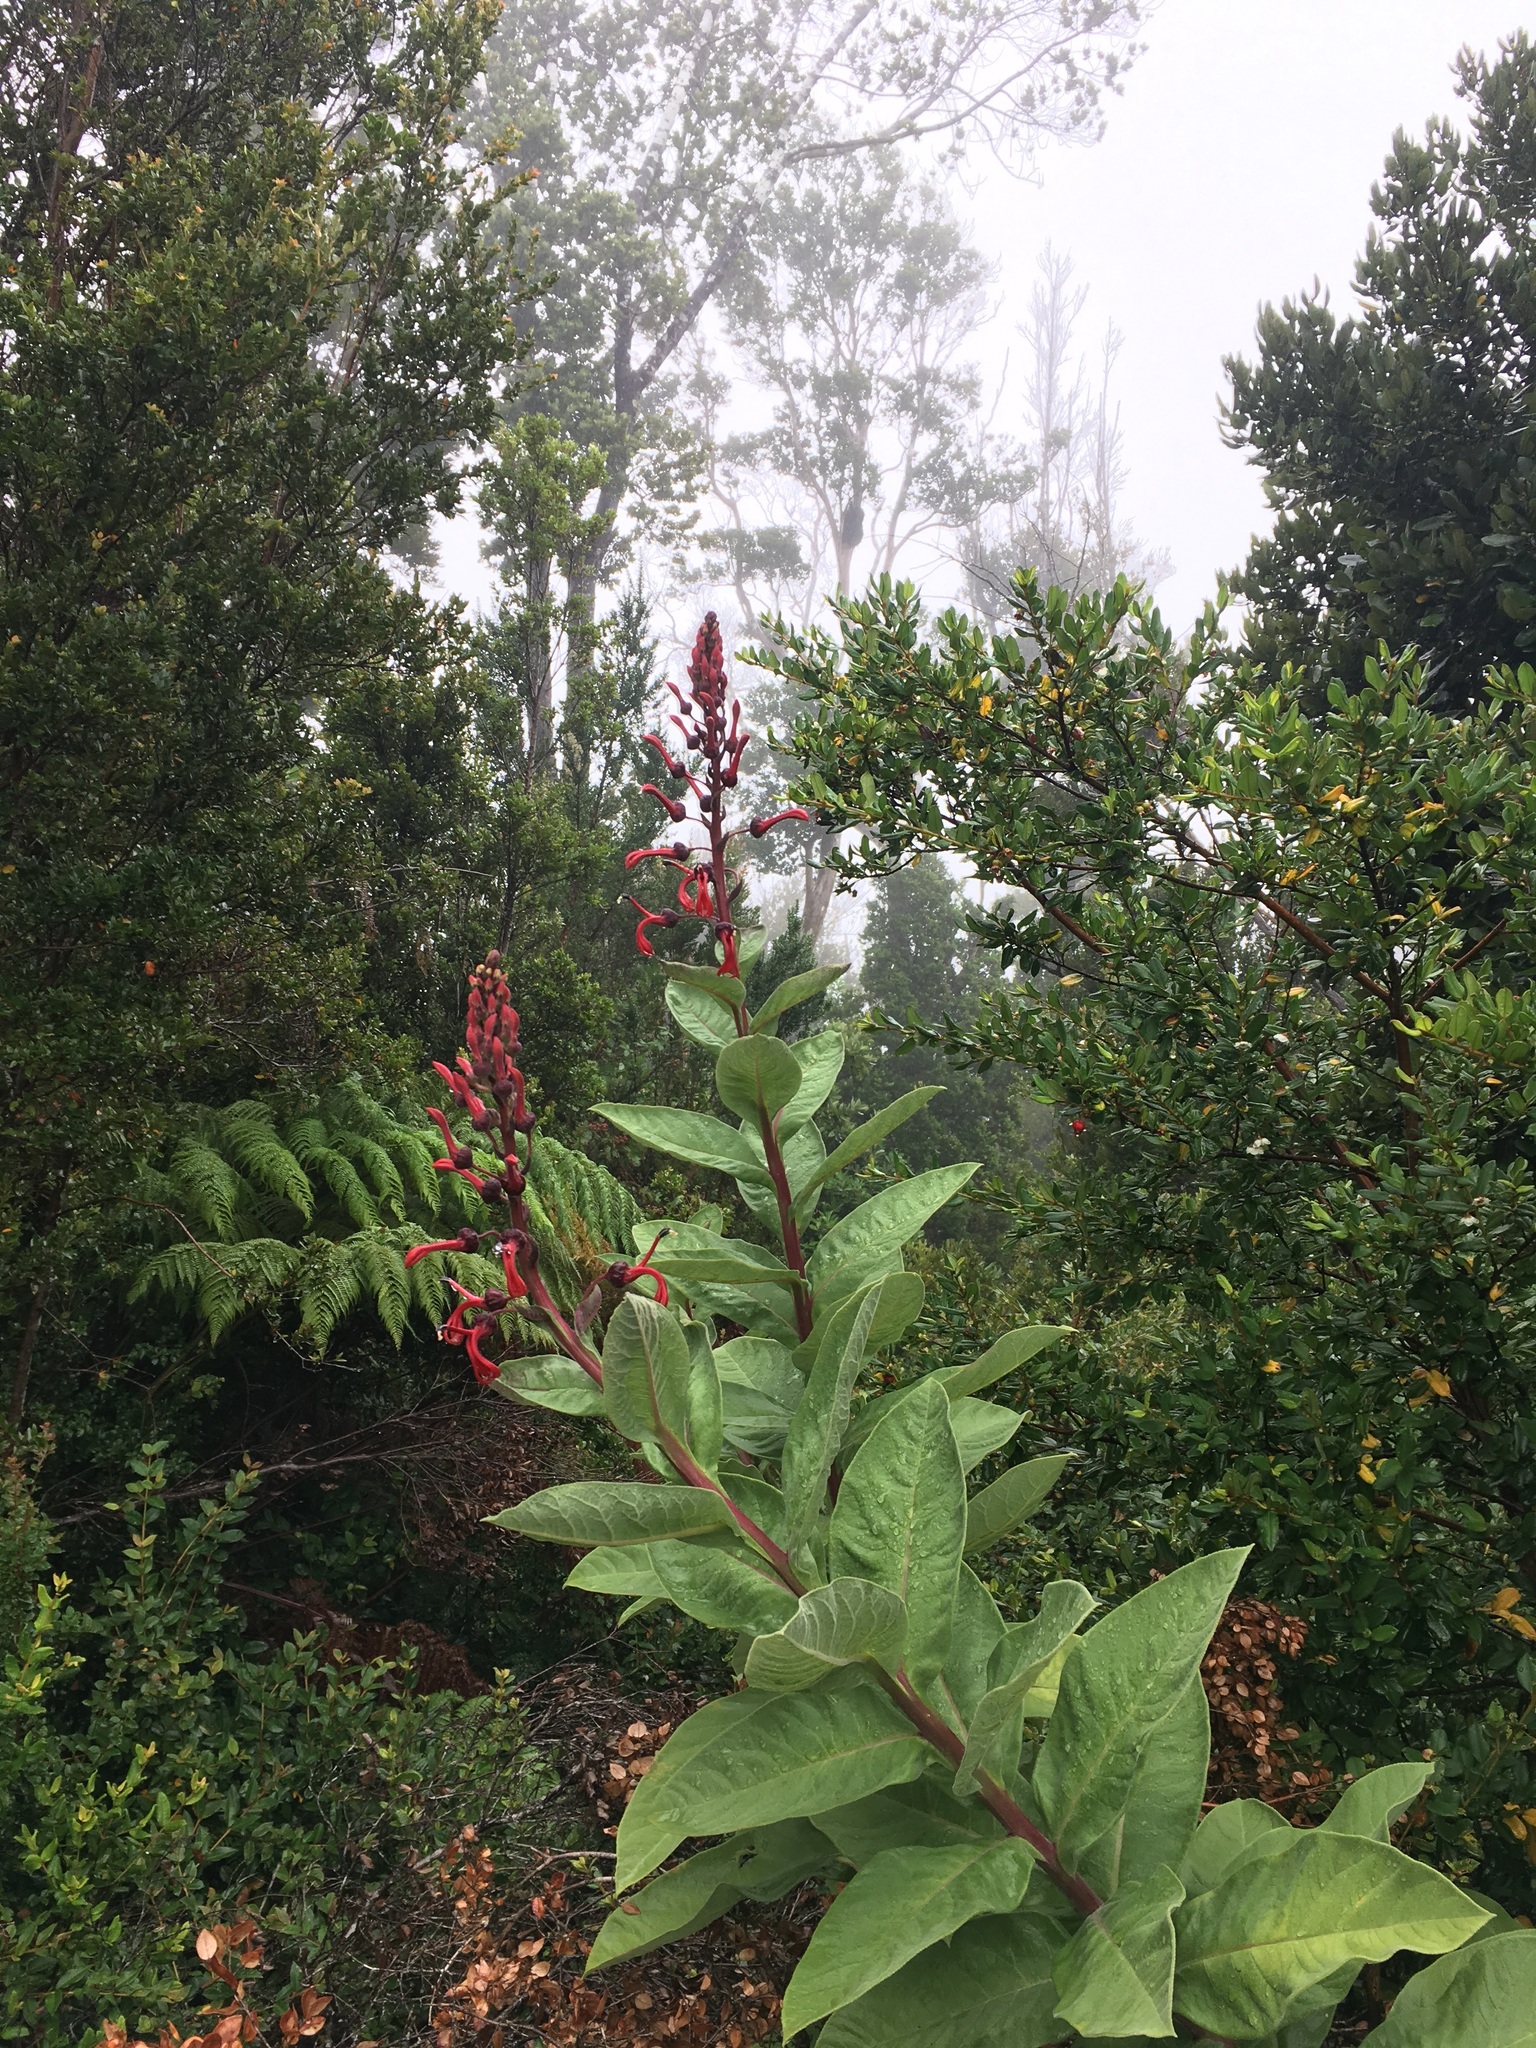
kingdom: Plantae
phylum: Tracheophyta
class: Magnoliopsida
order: Asterales
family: Campanulaceae
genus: Lobelia
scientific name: Lobelia tupa
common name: Devil's-tobacco
